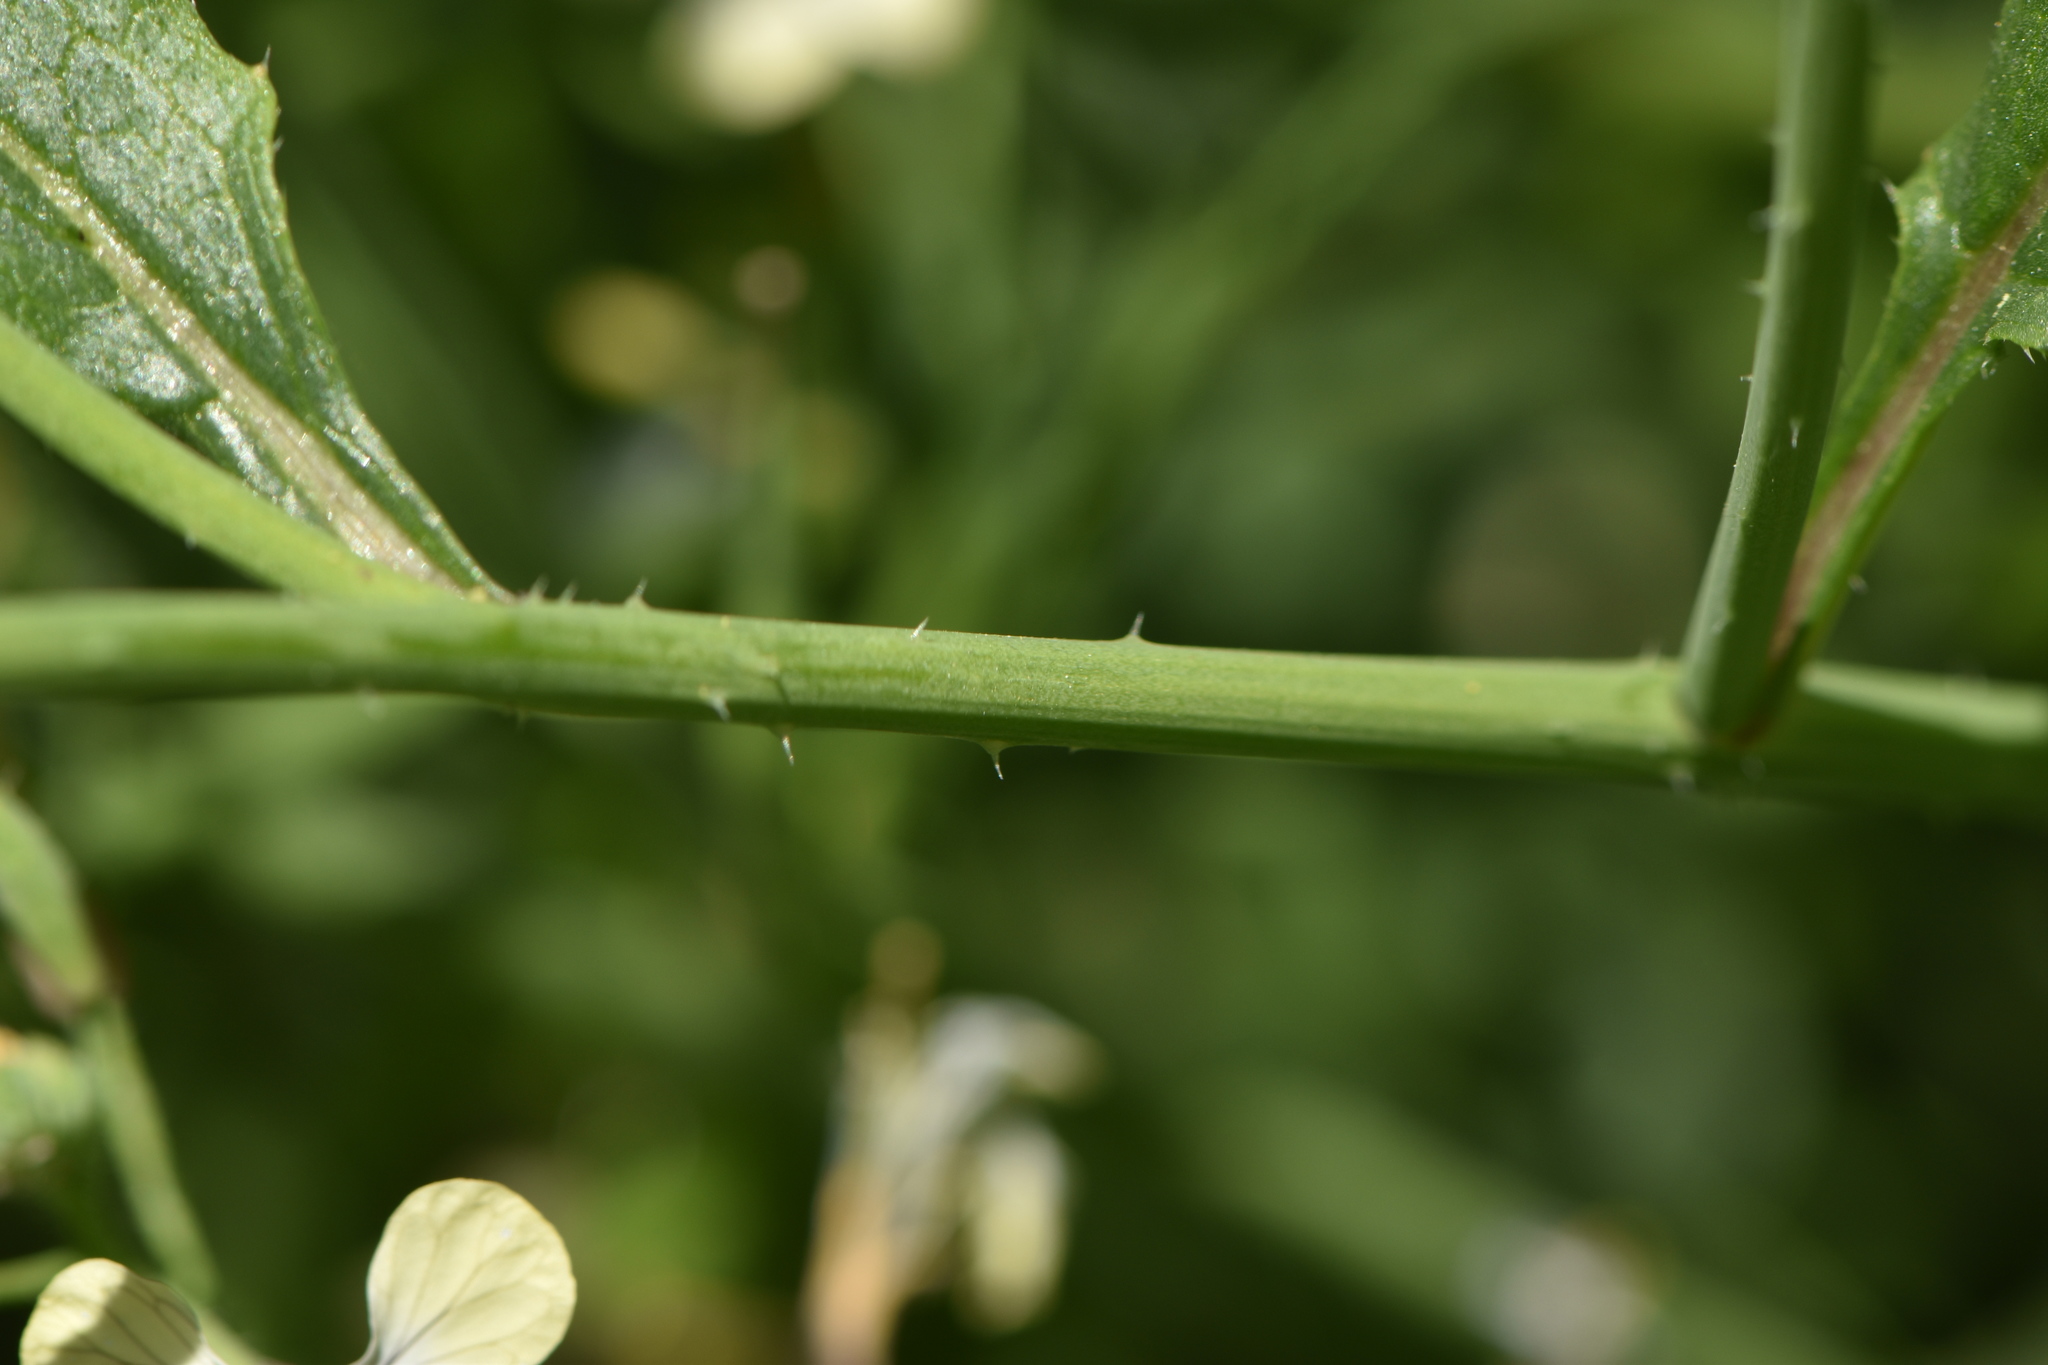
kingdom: Plantae
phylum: Tracheophyta
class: Magnoliopsida
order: Brassicales
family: Brassicaceae
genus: Raphanus
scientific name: Raphanus raphanistrum
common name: Wild radish
